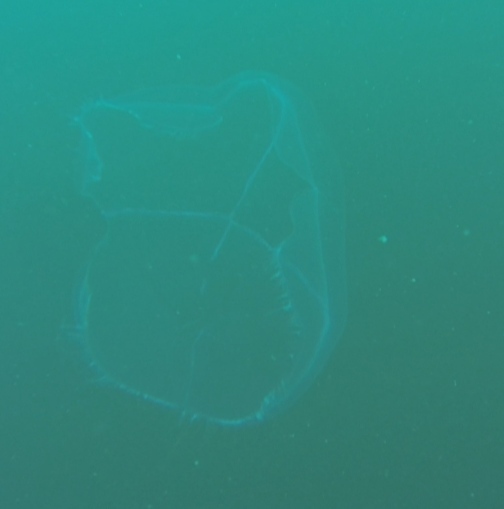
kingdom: Animalia
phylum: Cnidaria
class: Hydrozoa
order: Leptothecata
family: Laodiceidae
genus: Staurostoma
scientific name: Staurostoma falklandica
